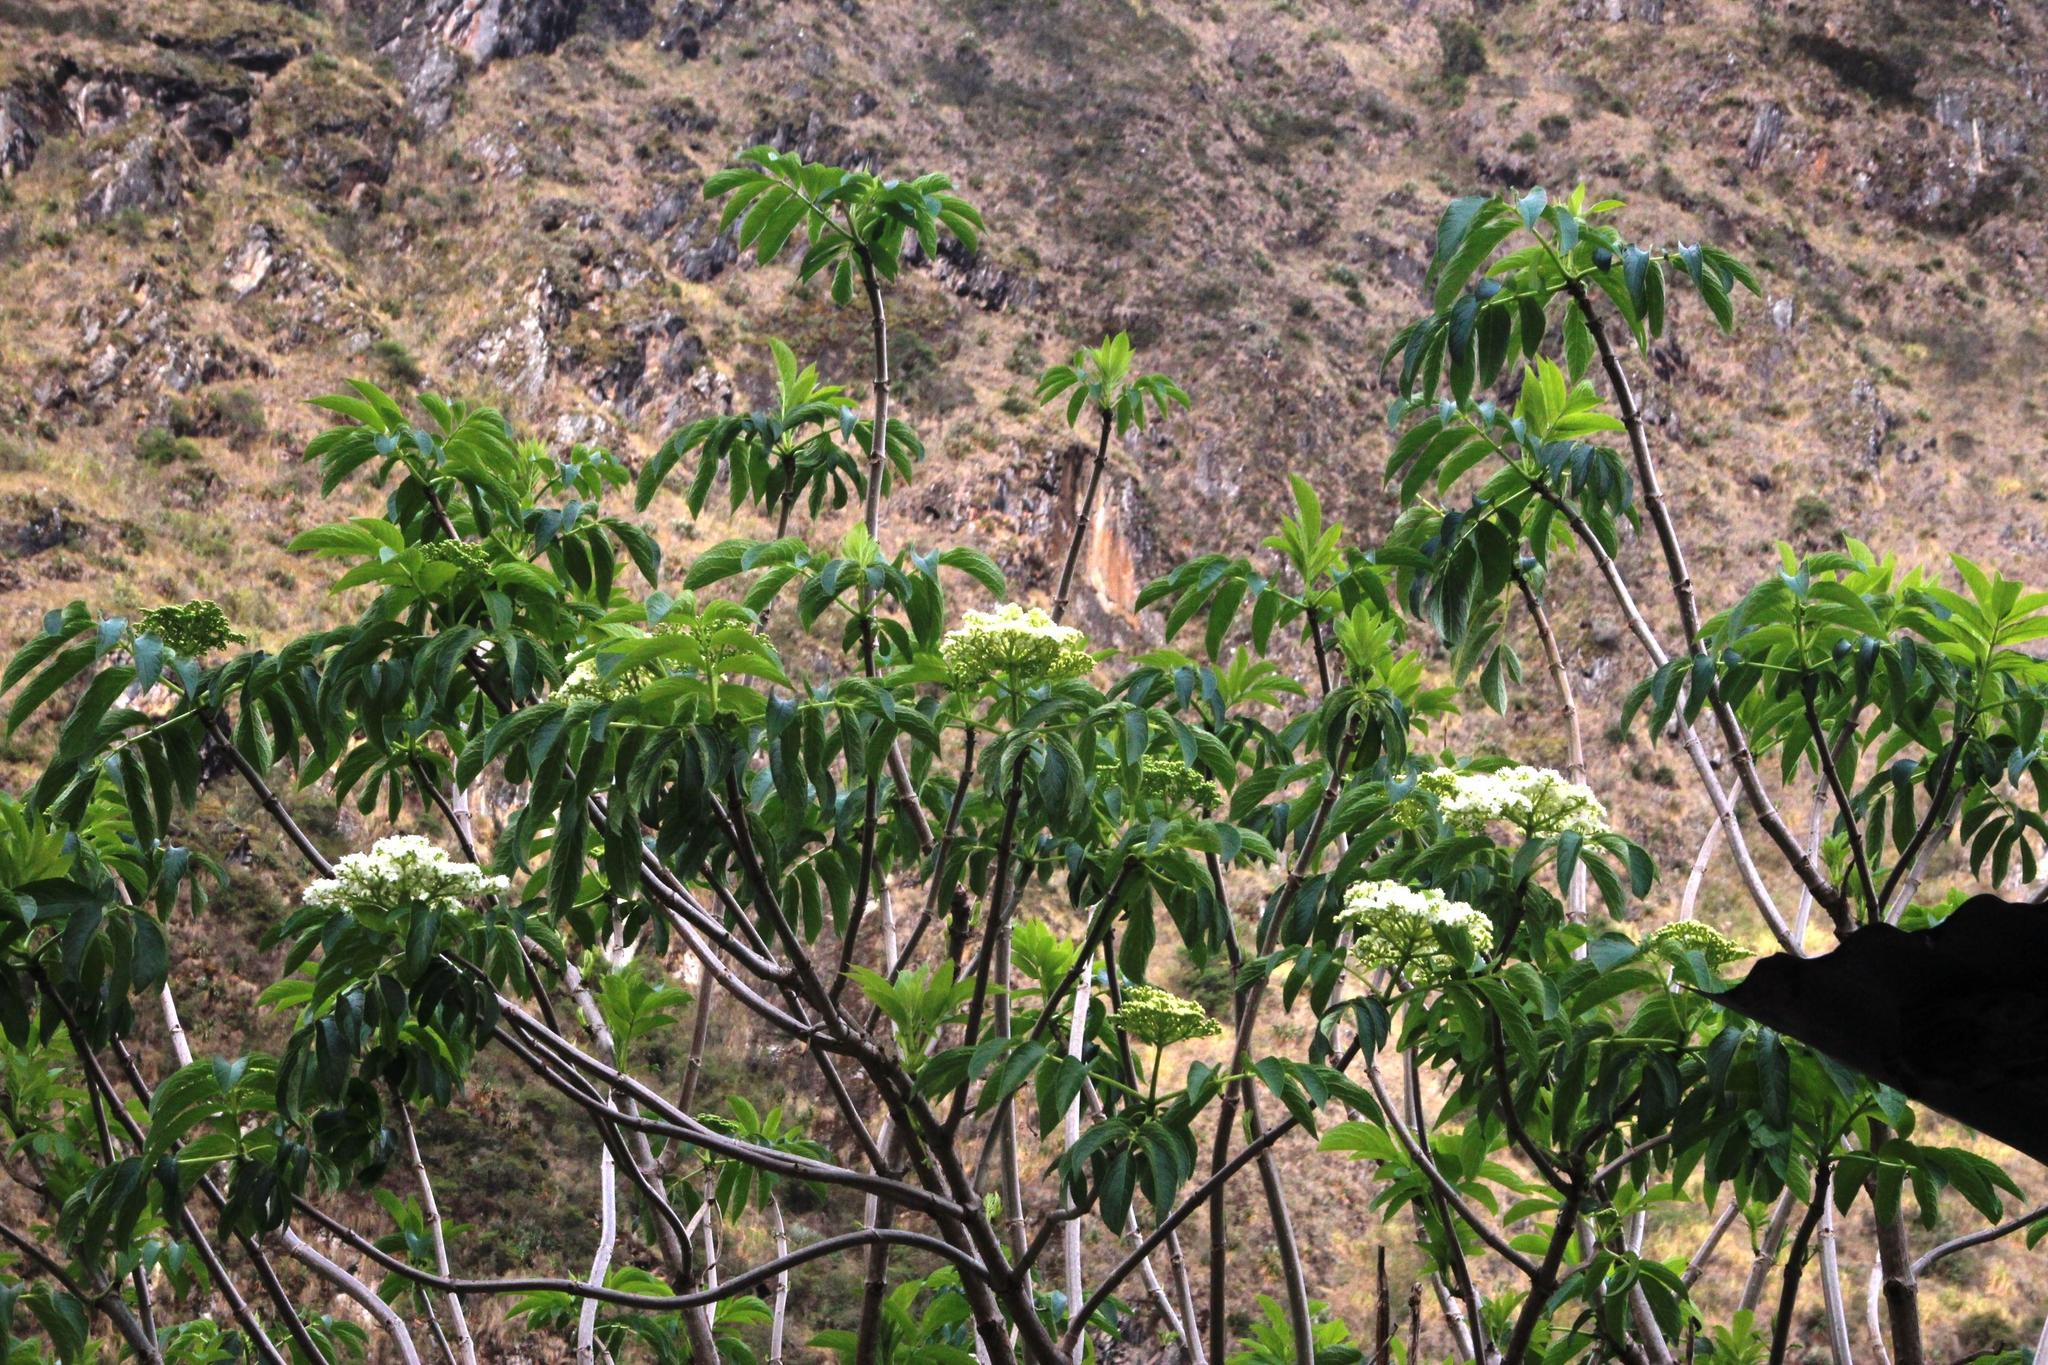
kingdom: Plantae
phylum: Tracheophyta
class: Magnoliopsida
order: Dipsacales
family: Viburnaceae
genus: Sambucus
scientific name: Sambucus peruviana
